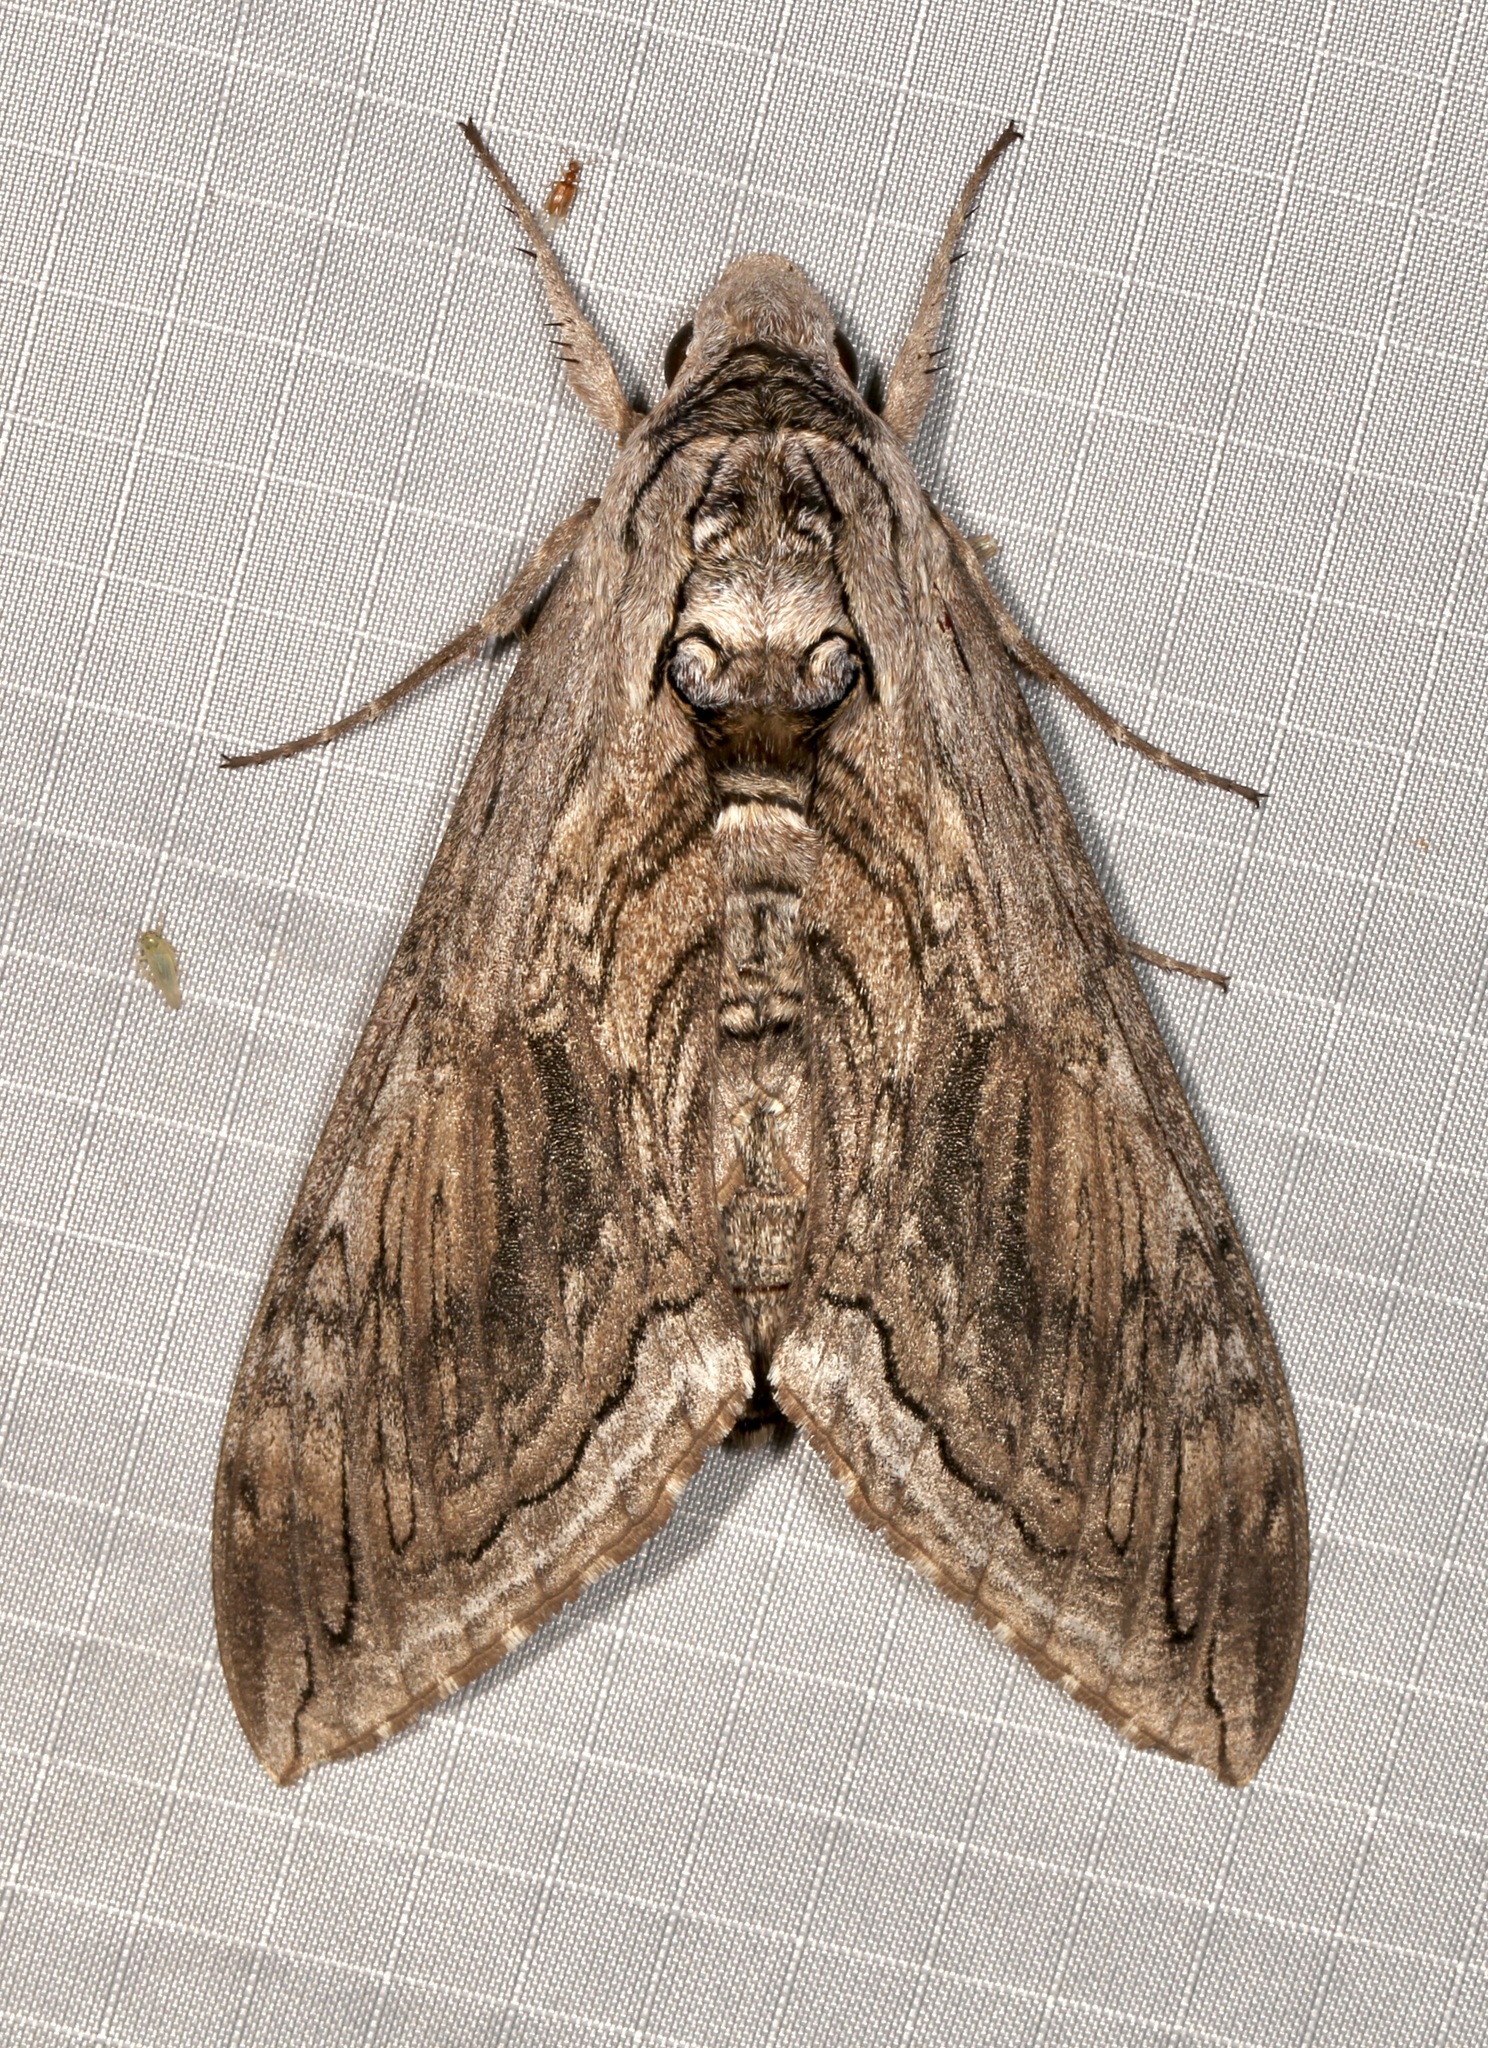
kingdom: Animalia
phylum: Arthropoda
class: Insecta
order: Lepidoptera
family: Sphingidae
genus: Manduca
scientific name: Manduca quinquemaculatus
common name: Five-spotted hawk-moth
